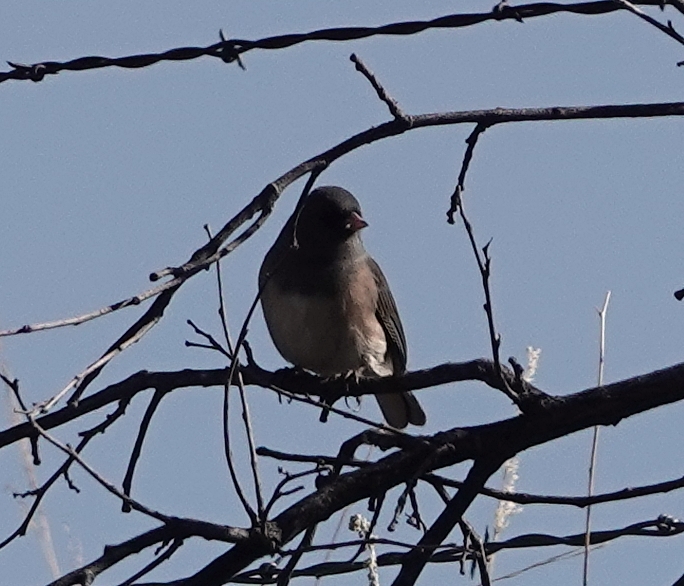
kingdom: Animalia
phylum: Chordata
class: Aves
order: Passeriformes
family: Passerellidae
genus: Junco
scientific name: Junco hyemalis
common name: Dark-eyed junco
